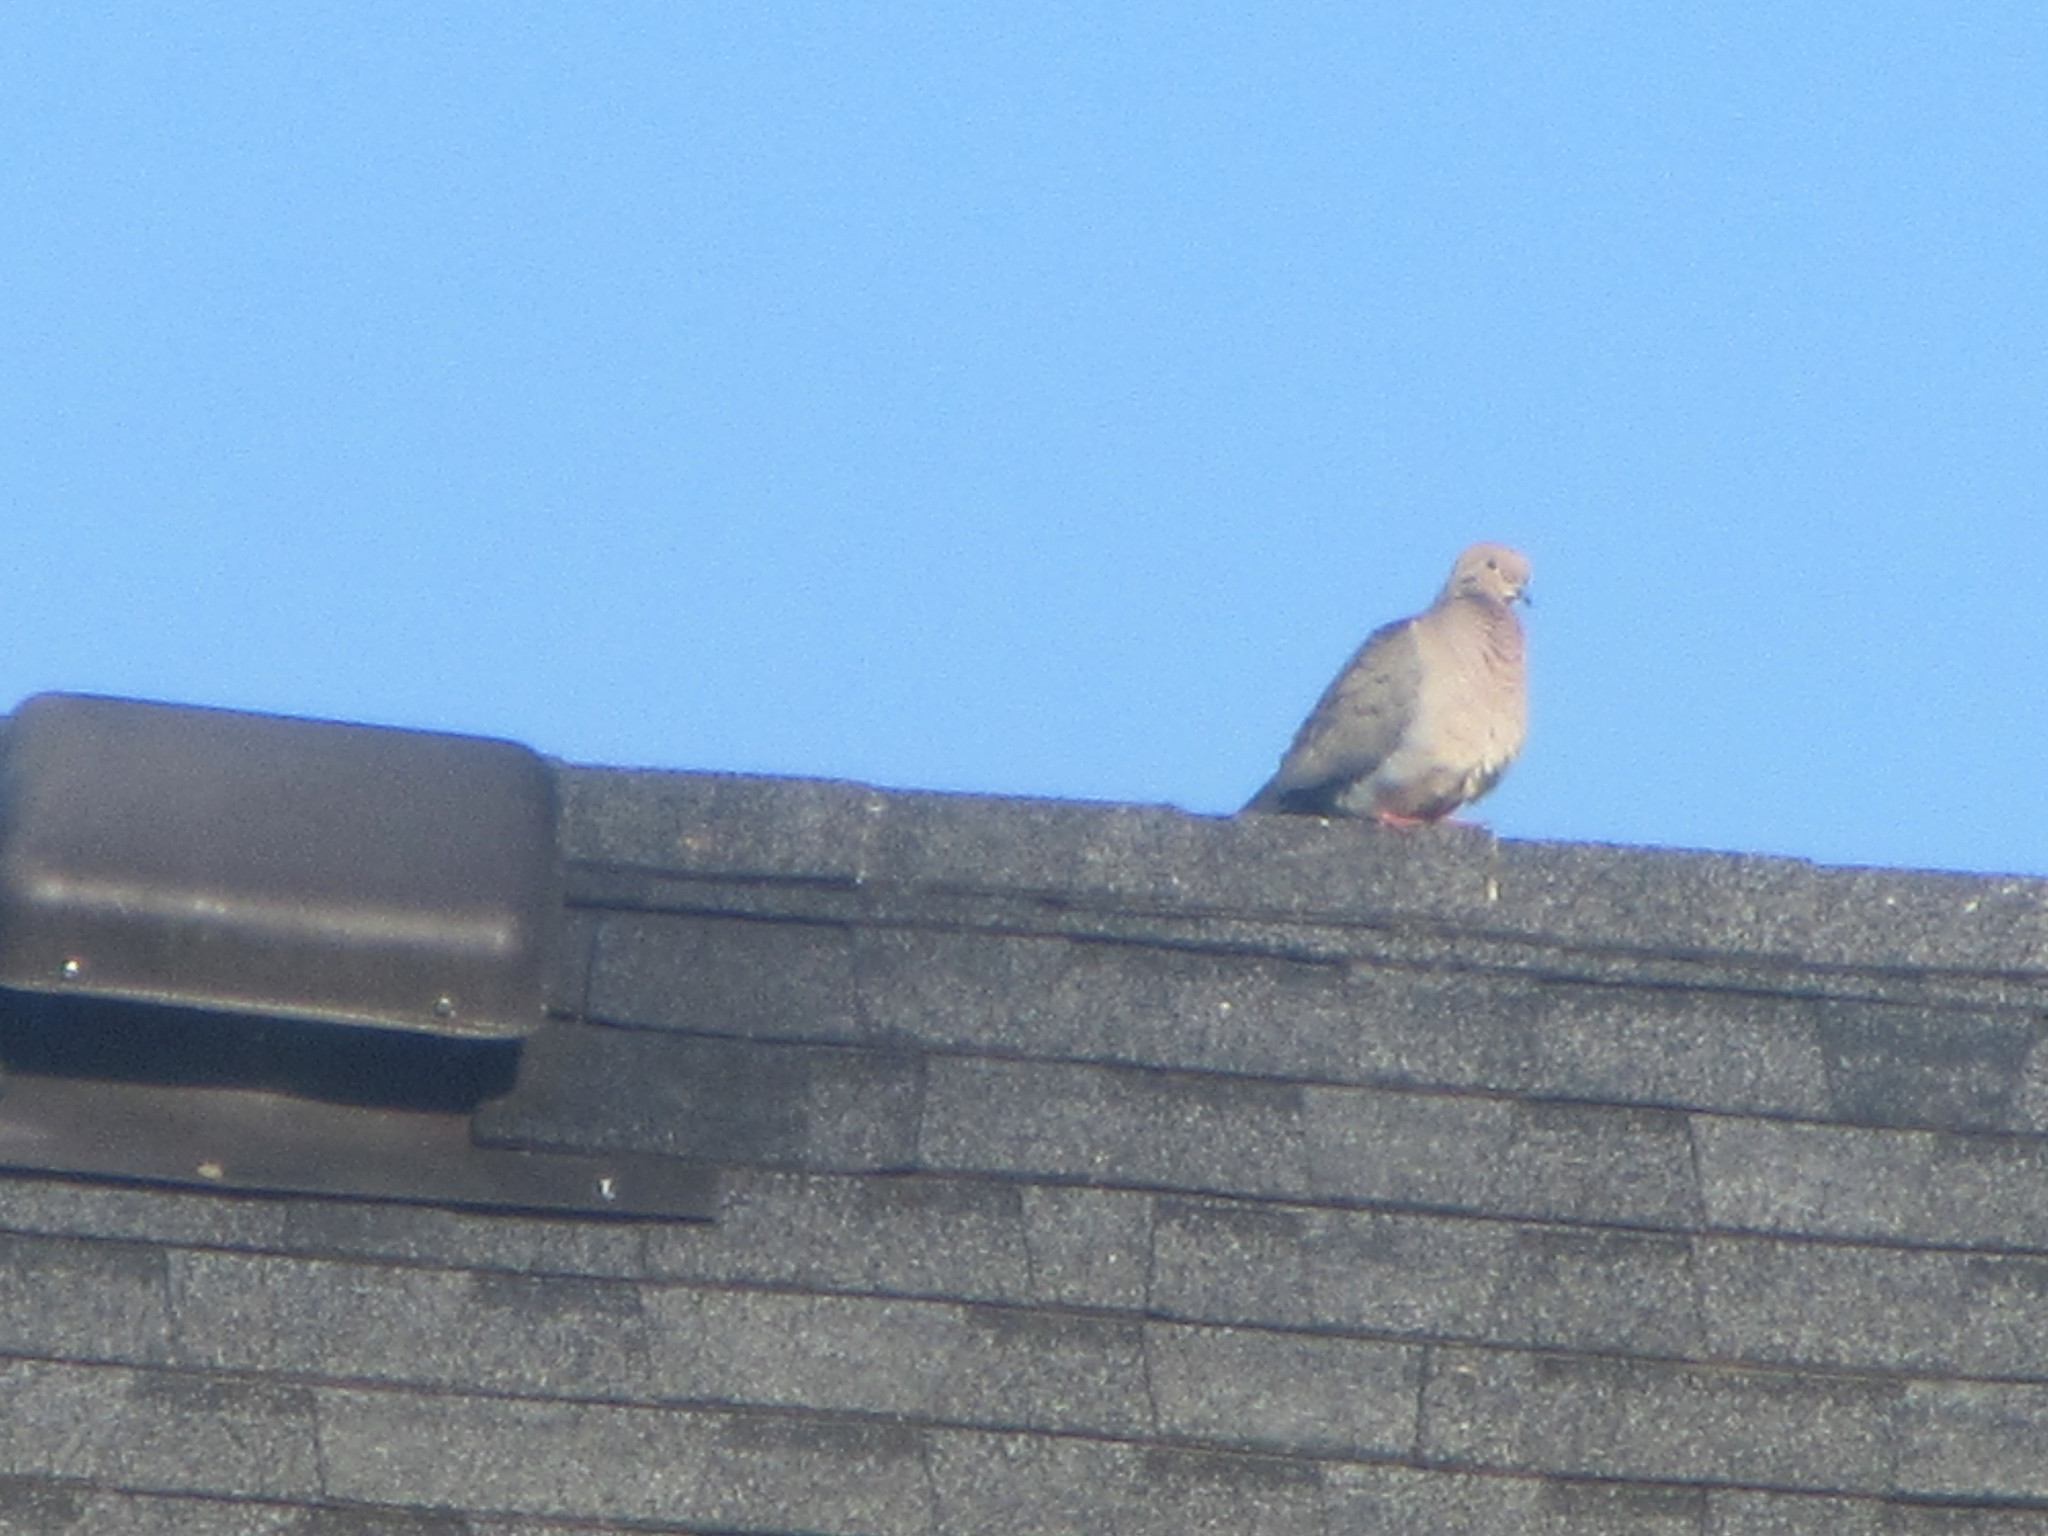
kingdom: Animalia
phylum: Chordata
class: Aves
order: Columbiformes
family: Columbidae
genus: Zenaida
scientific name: Zenaida macroura
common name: Mourning dove
